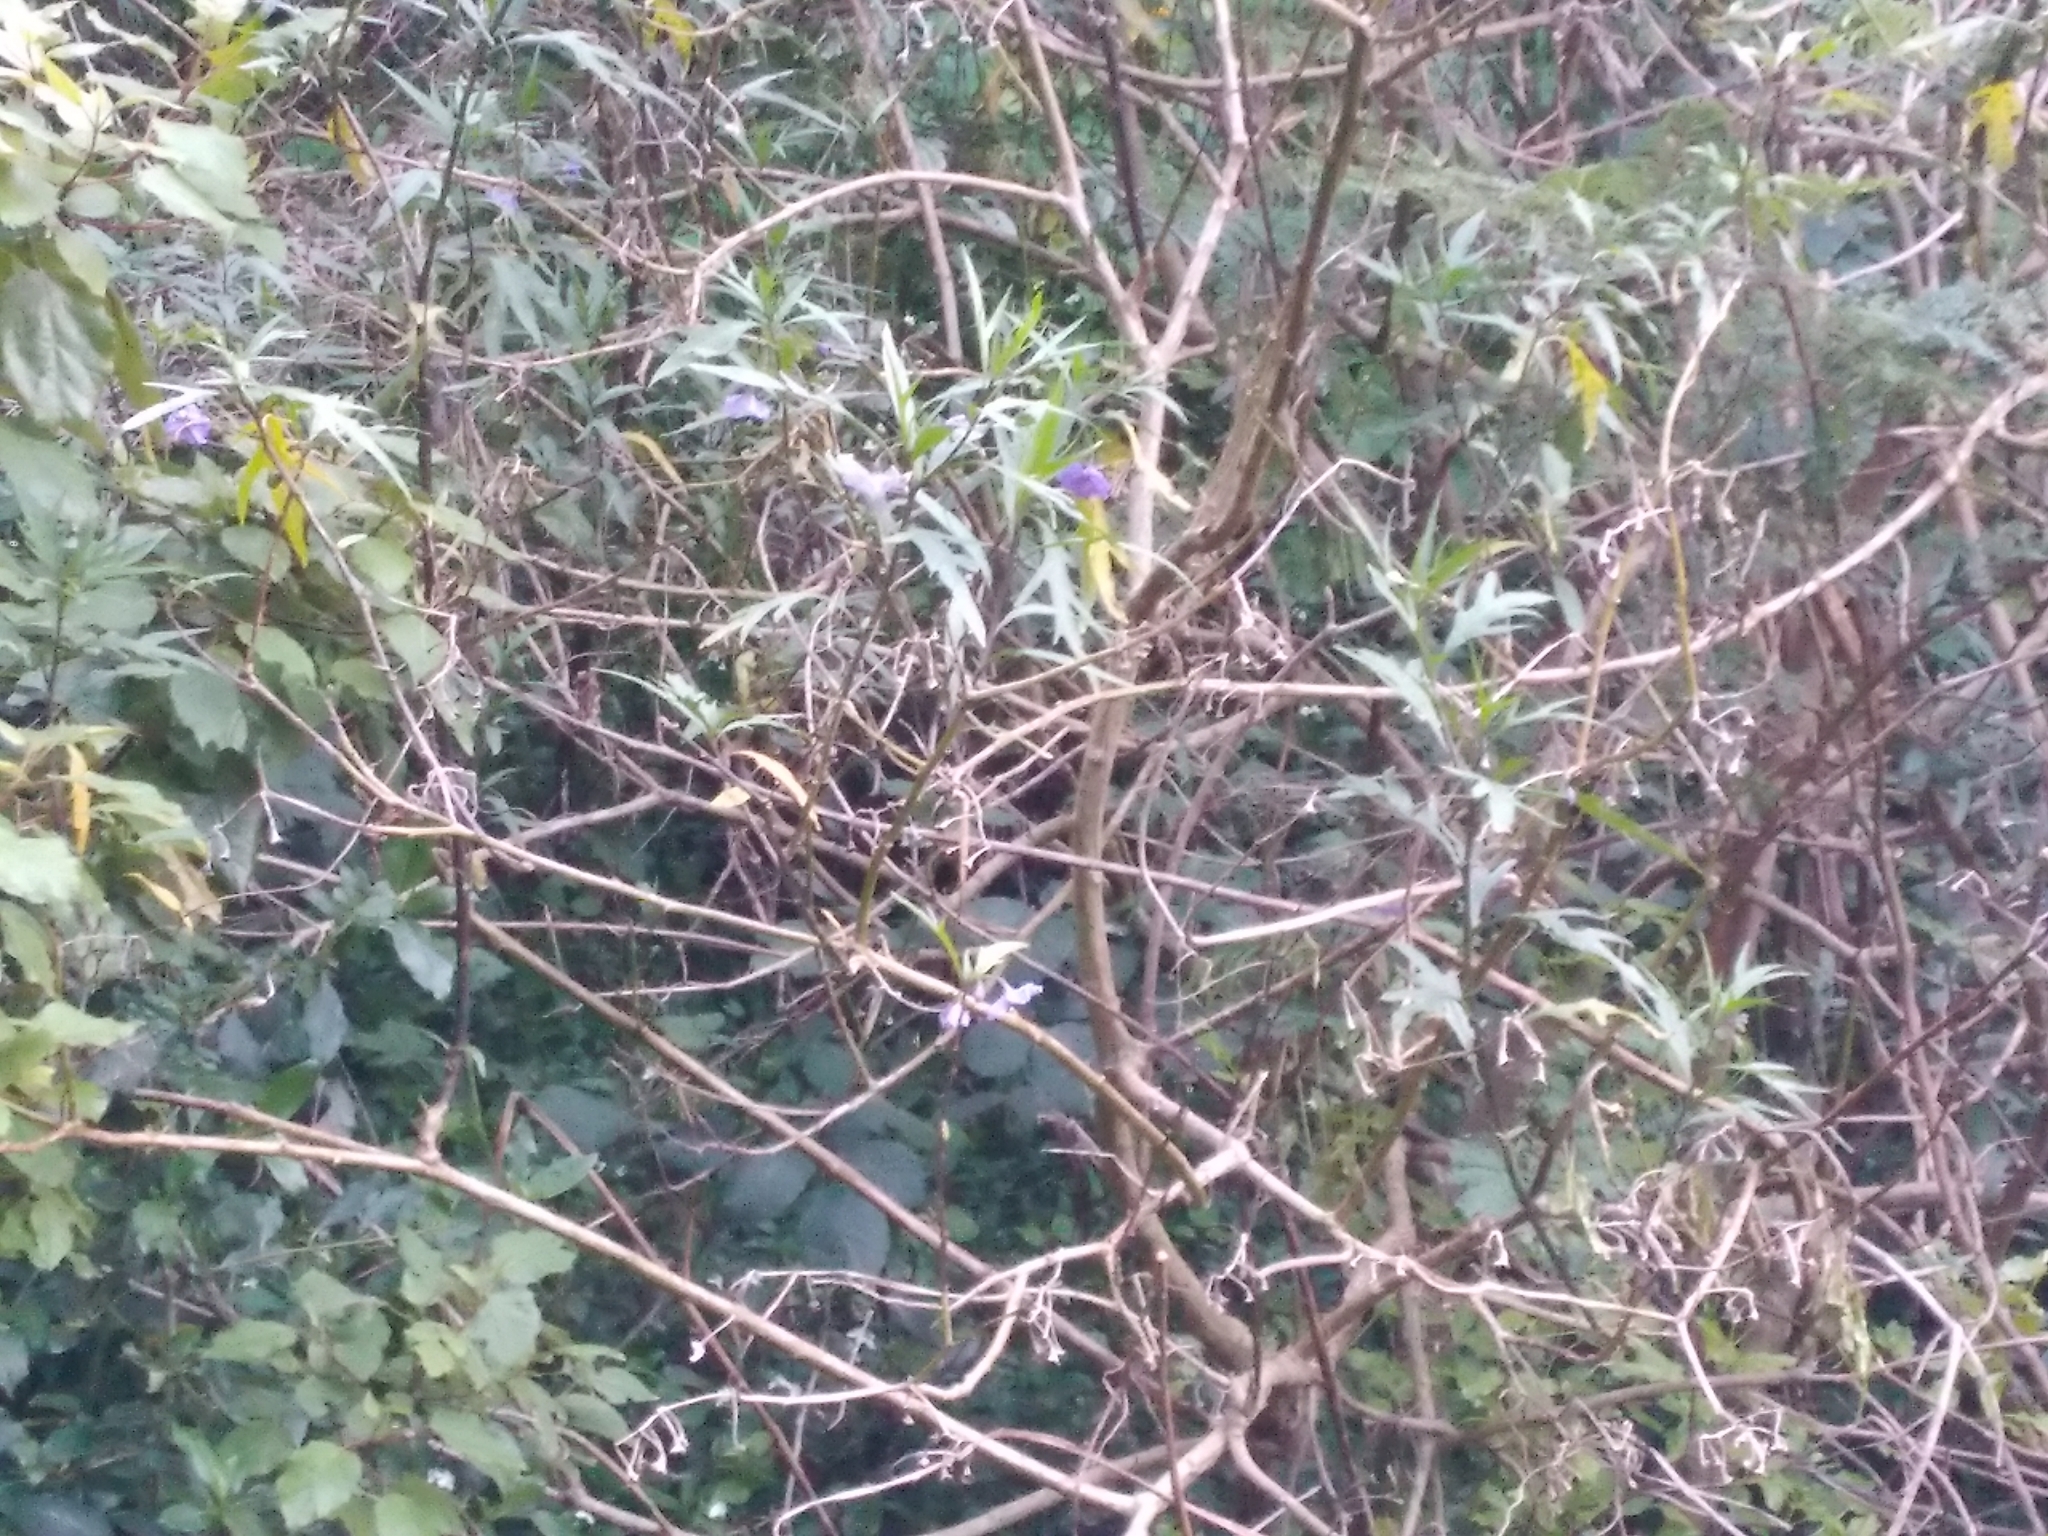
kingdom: Plantae
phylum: Tracheophyta
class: Magnoliopsida
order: Solanales
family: Solanaceae
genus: Solanum
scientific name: Solanum laciniatum
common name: Kangaroo-apple
